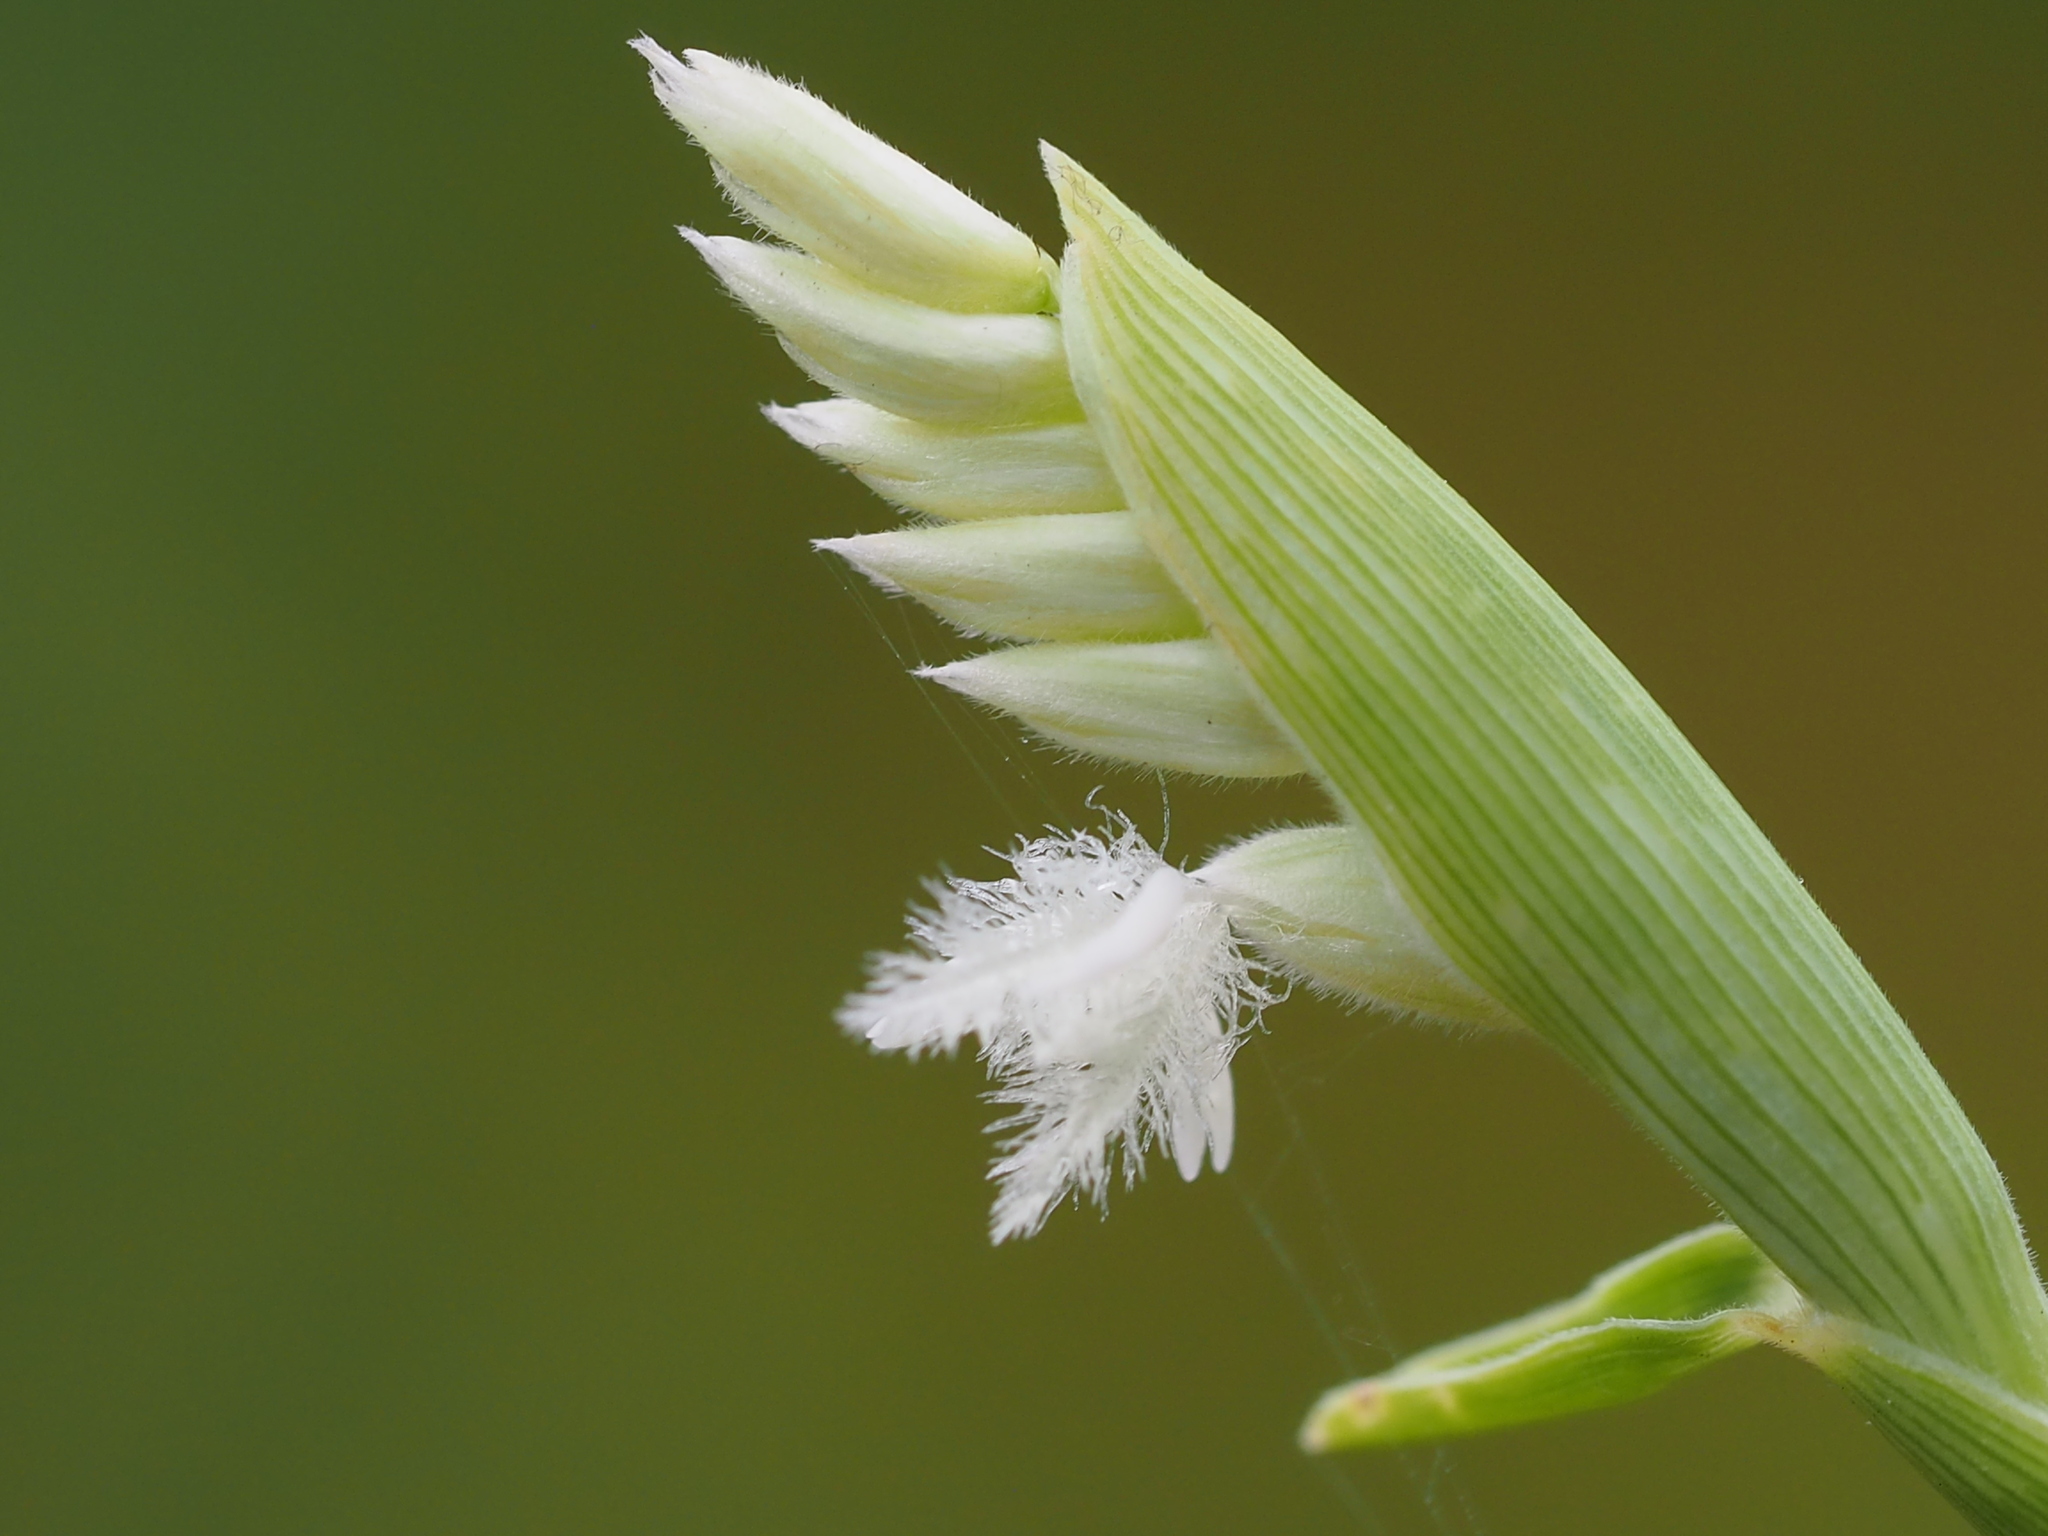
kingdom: Plantae
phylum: Tracheophyta
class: Liliopsida
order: Poales
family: Poaceae
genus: Thuarea
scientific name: Thuarea involuta
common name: Tropical beach grass
